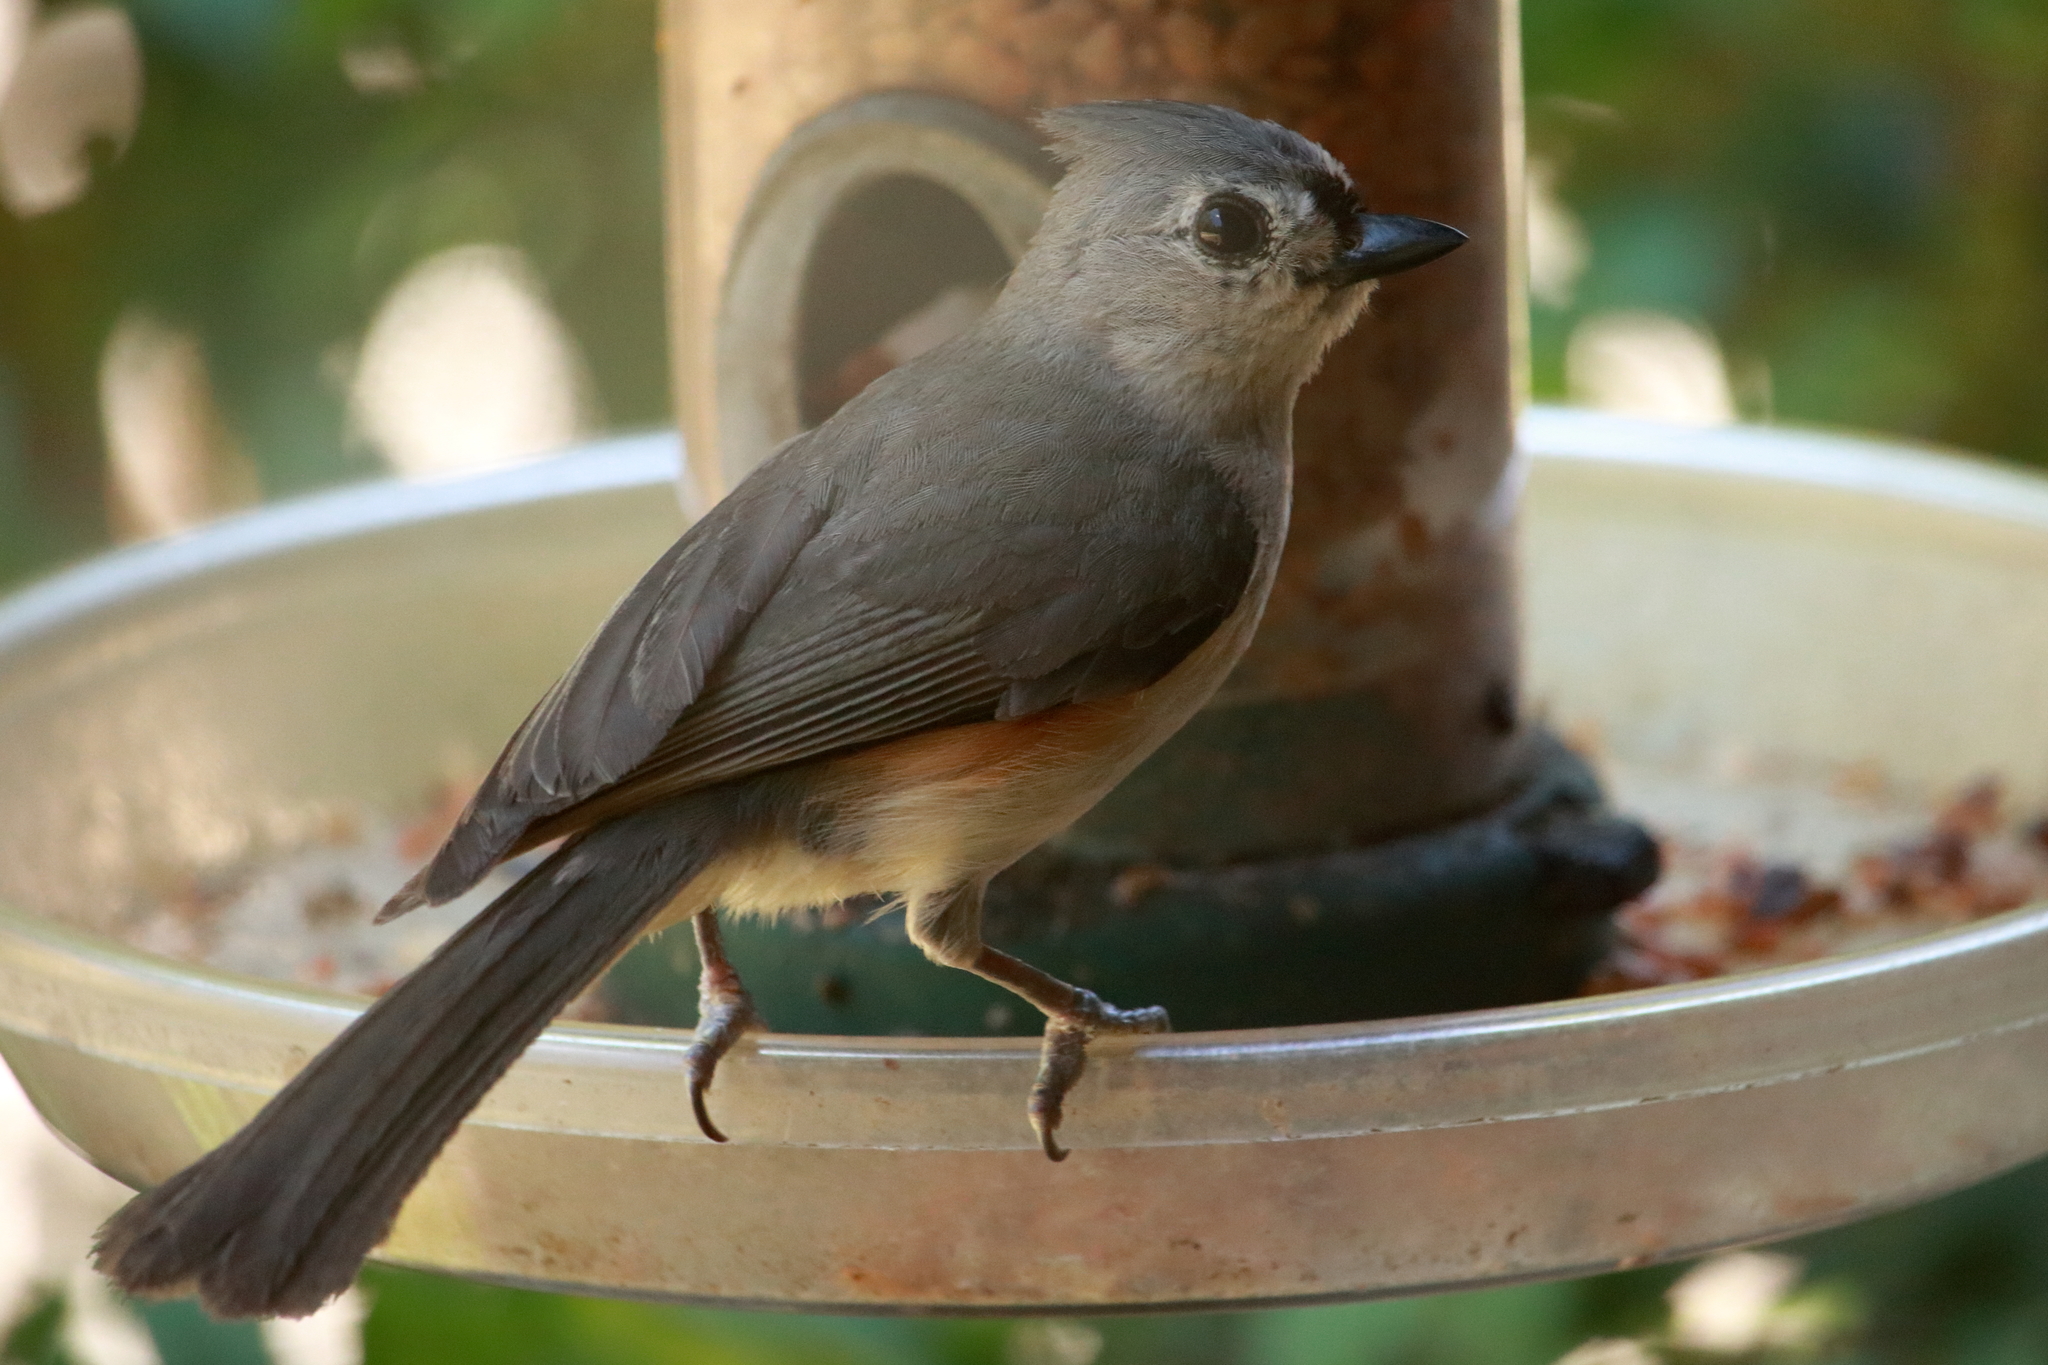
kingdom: Animalia
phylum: Chordata
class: Aves
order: Passeriformes
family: Paridae
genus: Baeolophus
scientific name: Baeolophus bicolor
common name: Tufted titmouse
